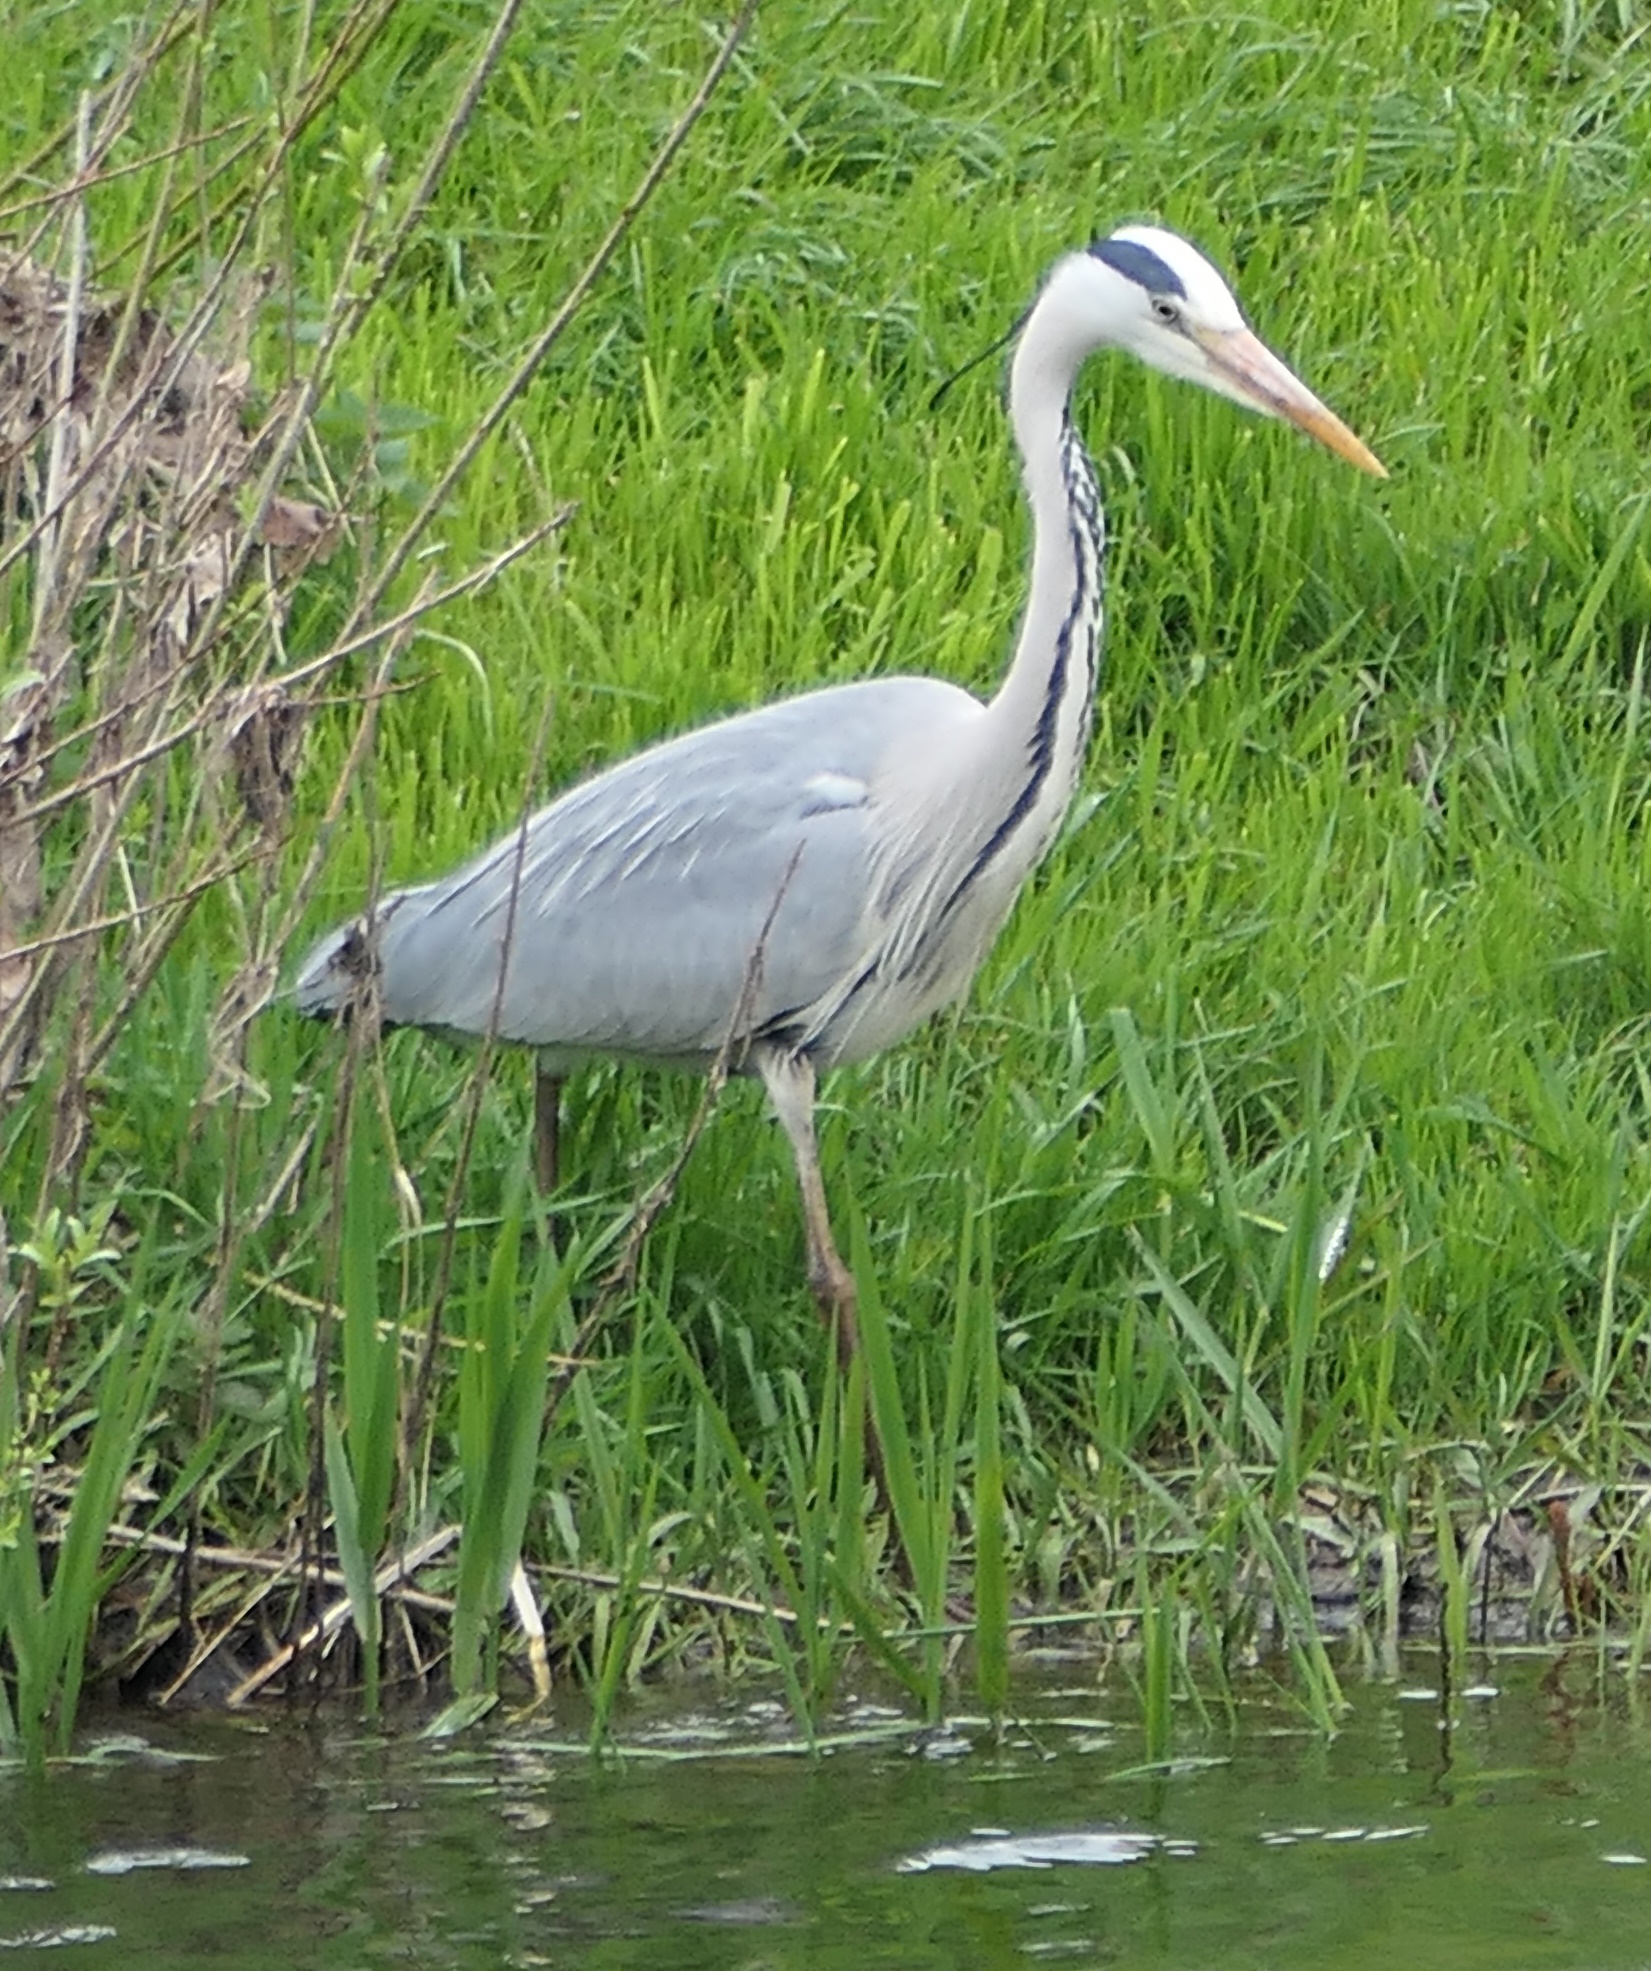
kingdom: Animalia
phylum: Chordata
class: Aves
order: Pelecaniformes
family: Ardeidae
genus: Ardea
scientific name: Ardea cinerea
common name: Grey heron
